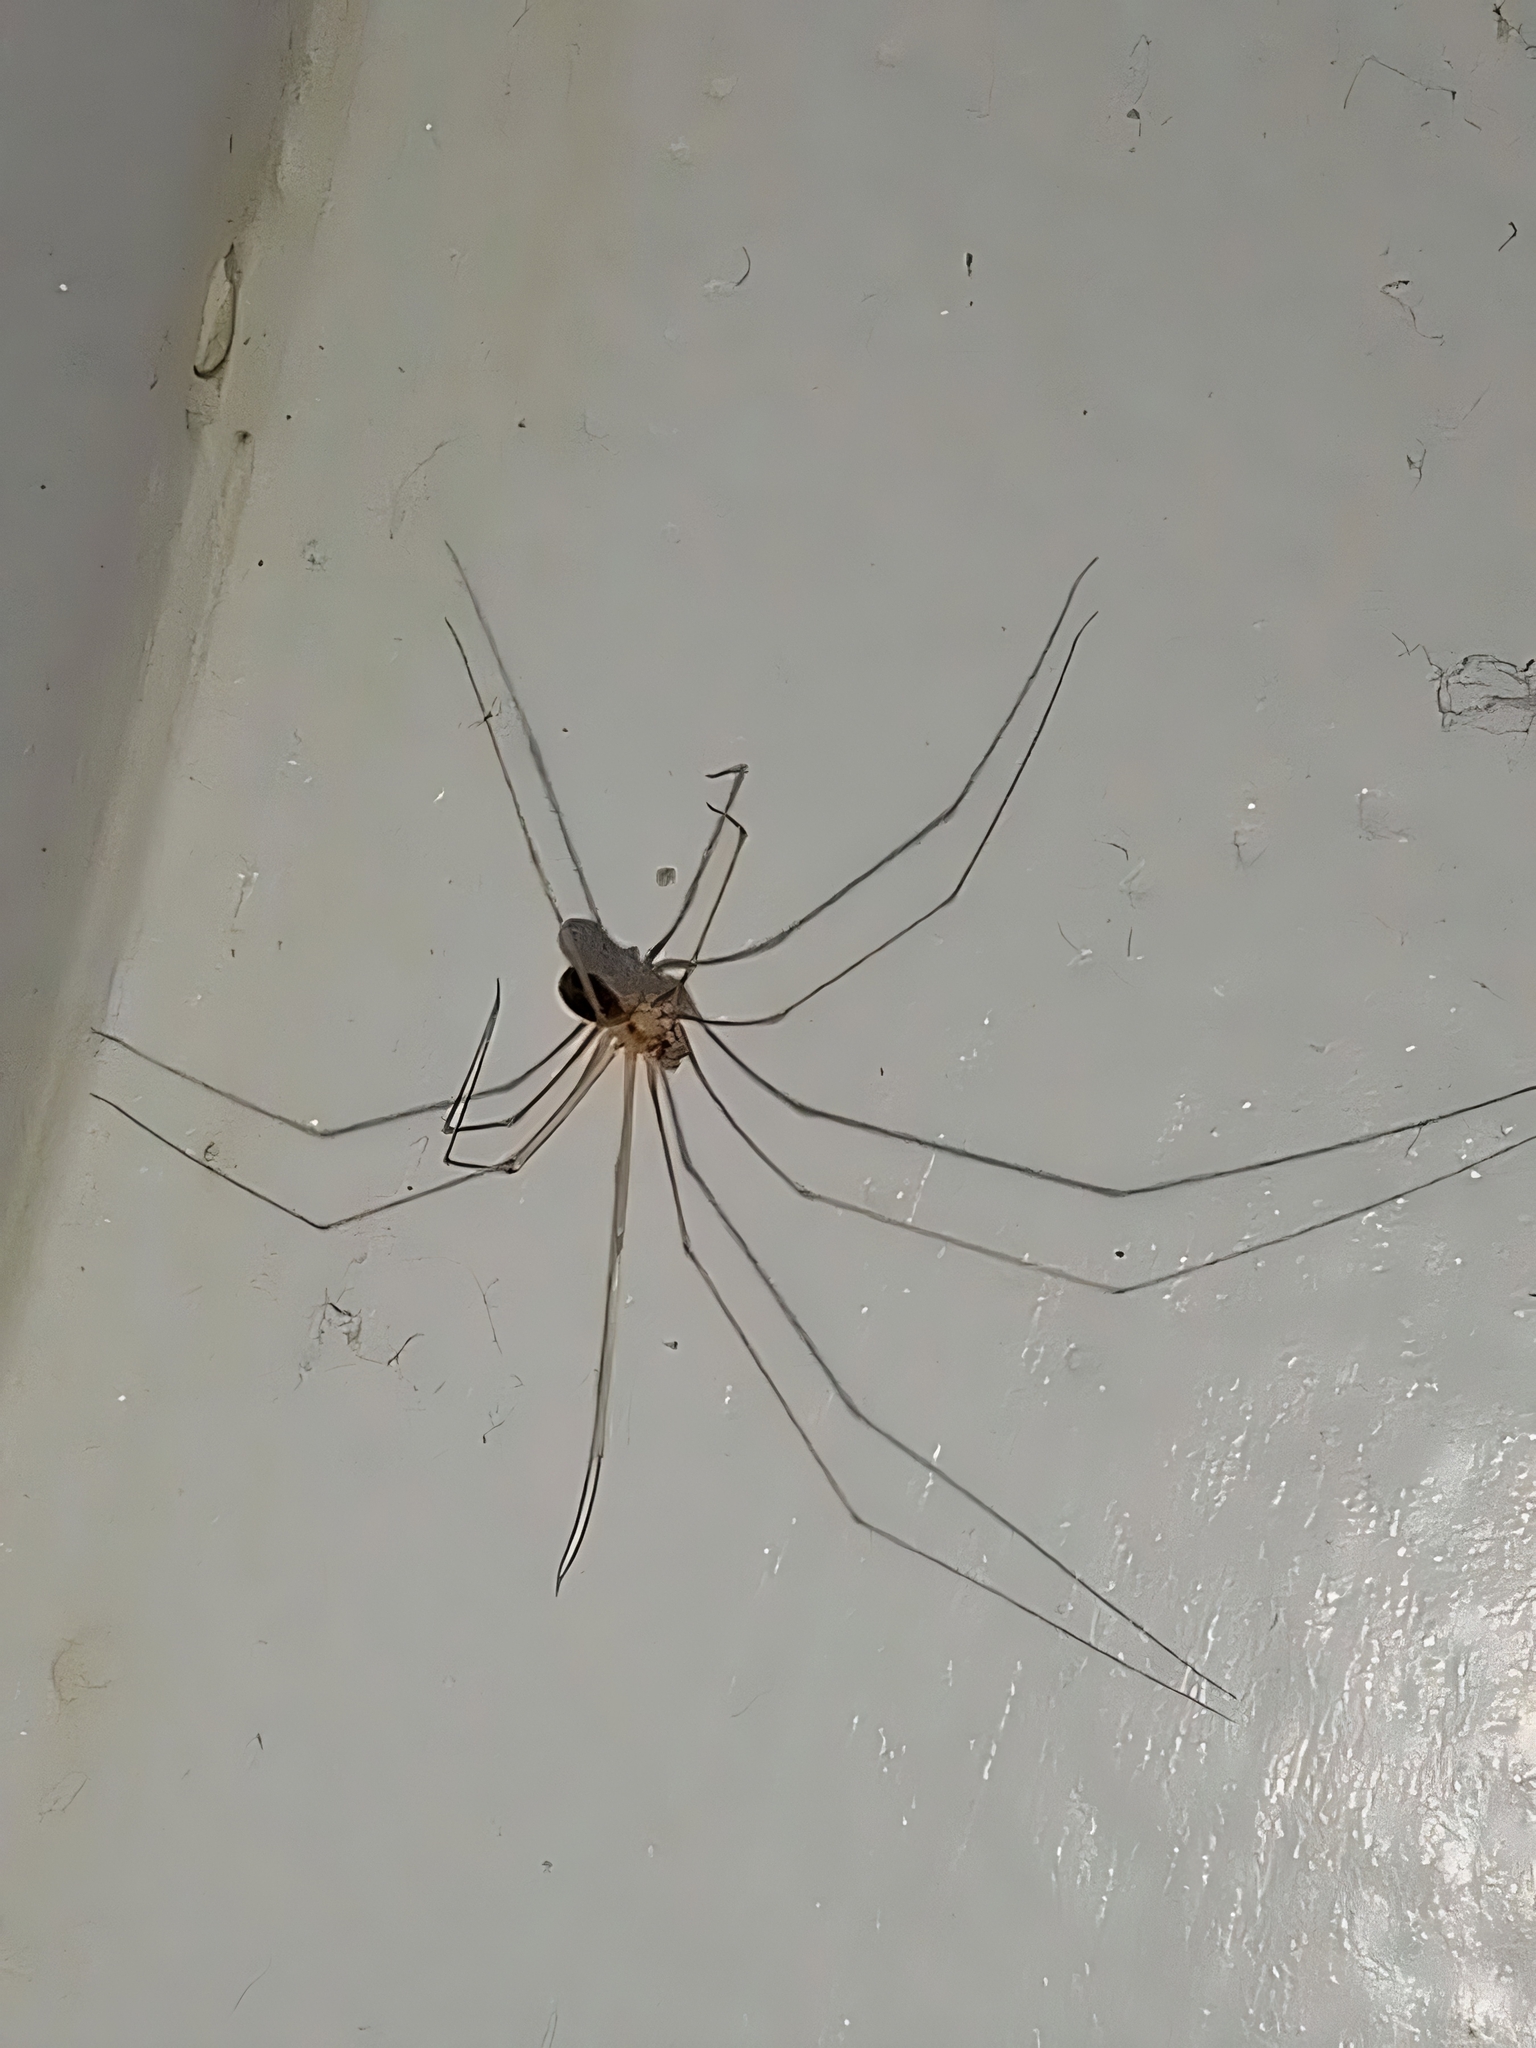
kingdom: Animalia
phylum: Arthropoda
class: Arachnida
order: Araneae
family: Pholcidae
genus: Pholcus
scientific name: Pholcus phalangioides
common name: Longbodied cellar spider
